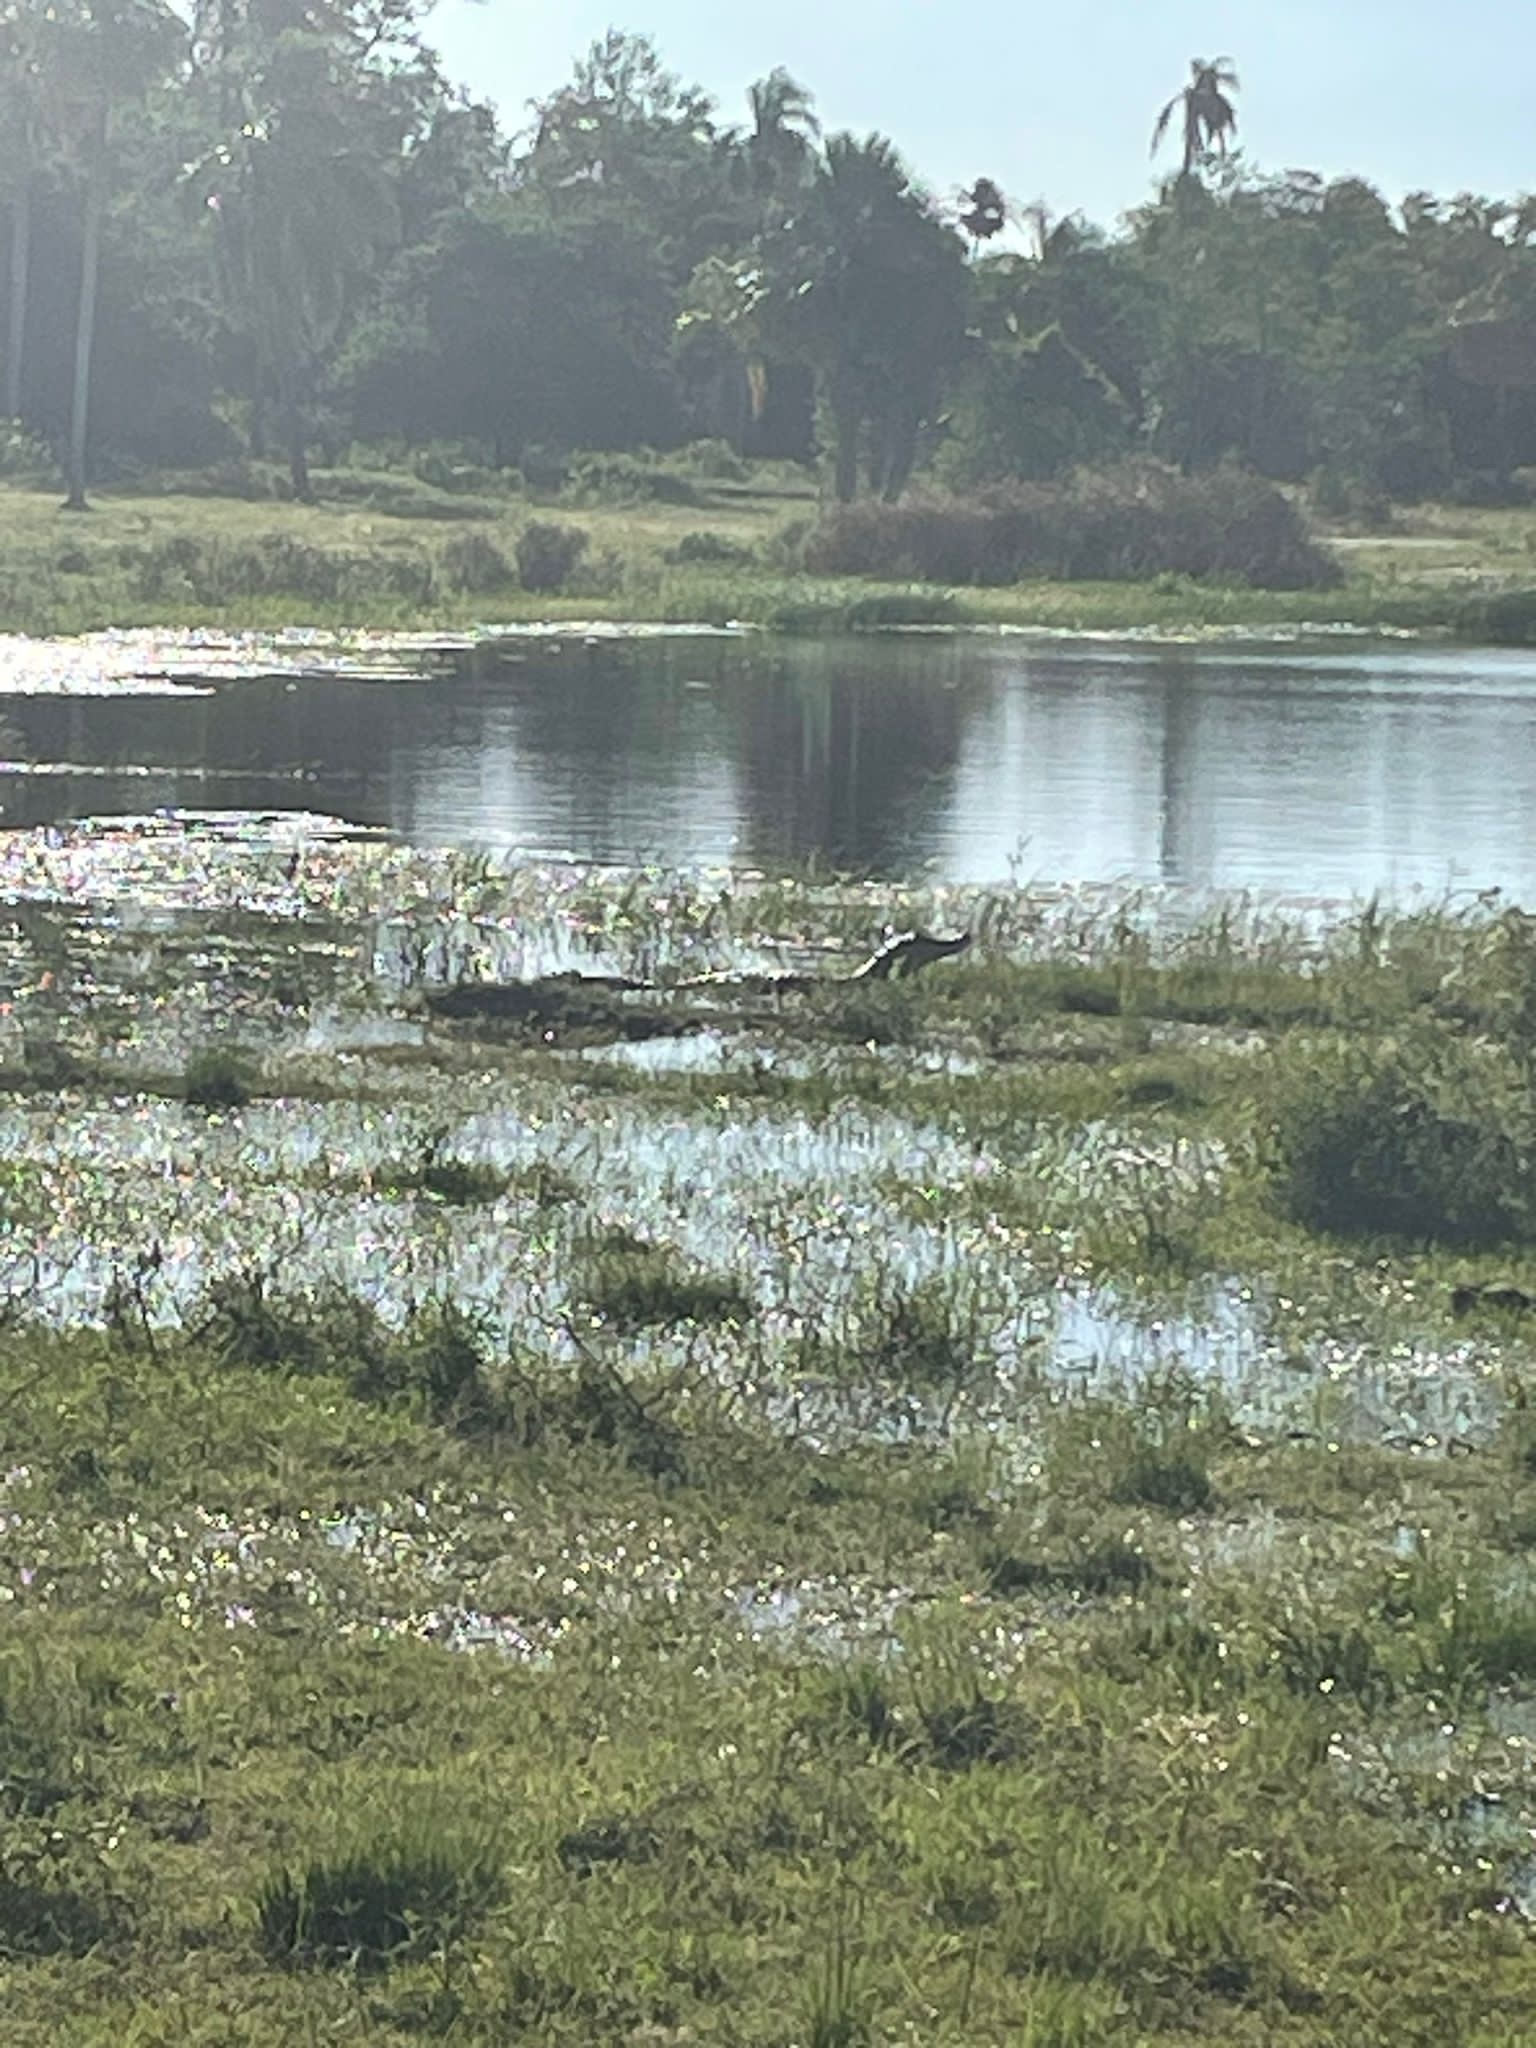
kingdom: Animalia
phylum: Chordata
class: Crocodylia
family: Alligatoridae
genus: Caiman
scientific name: Caiman yacare
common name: Yacare caiman
